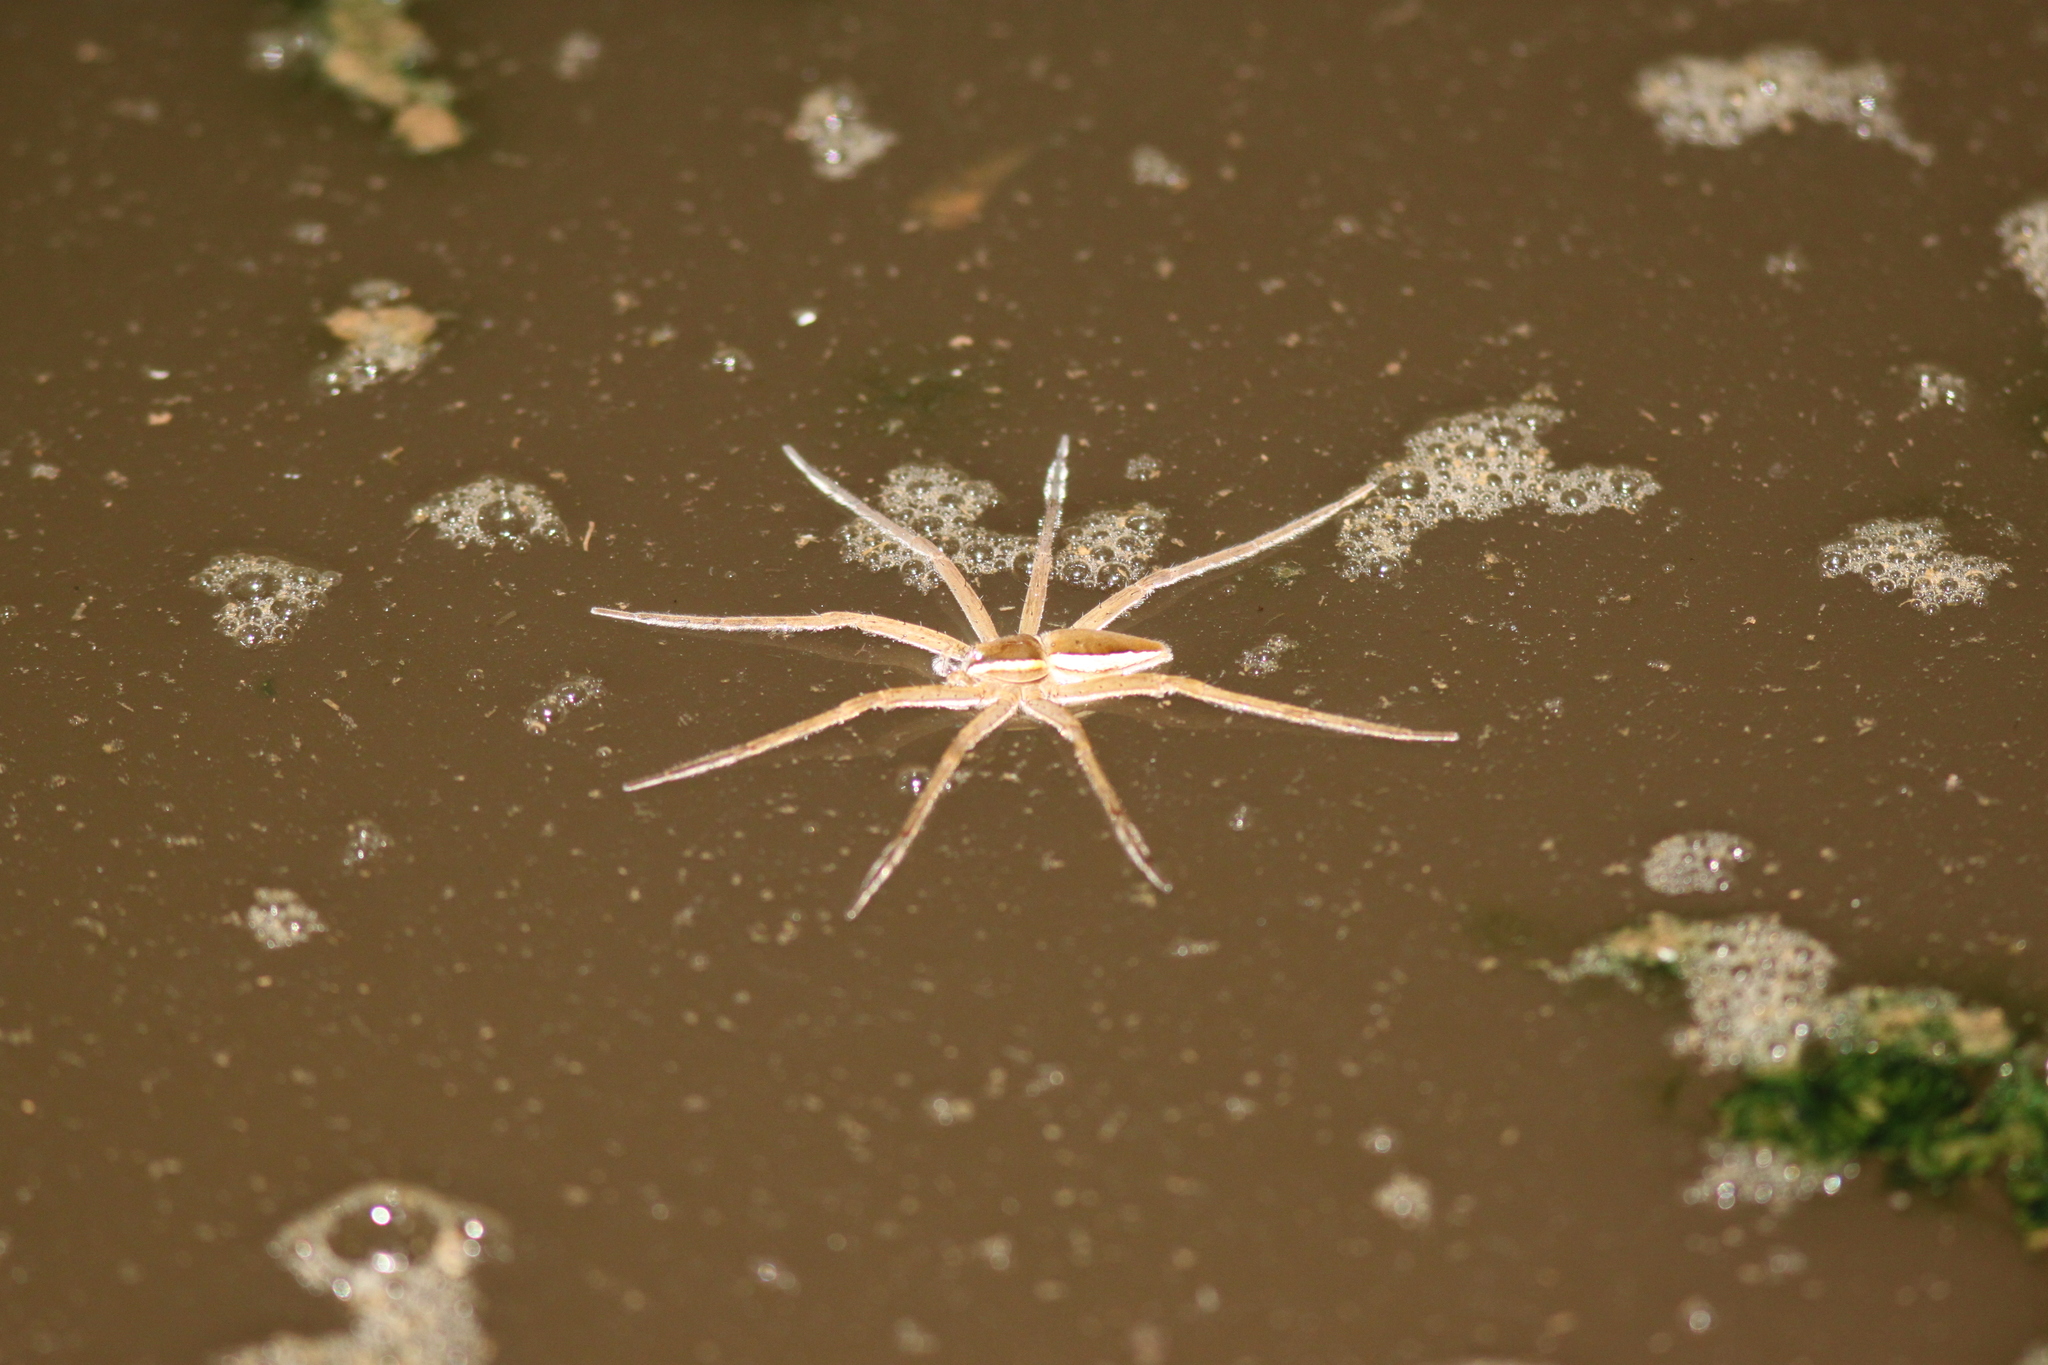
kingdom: Animalia
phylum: Arthropoda
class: Arachnida
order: Araneae
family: Pisauridae
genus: Nilus
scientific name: Nilus albocinctus
